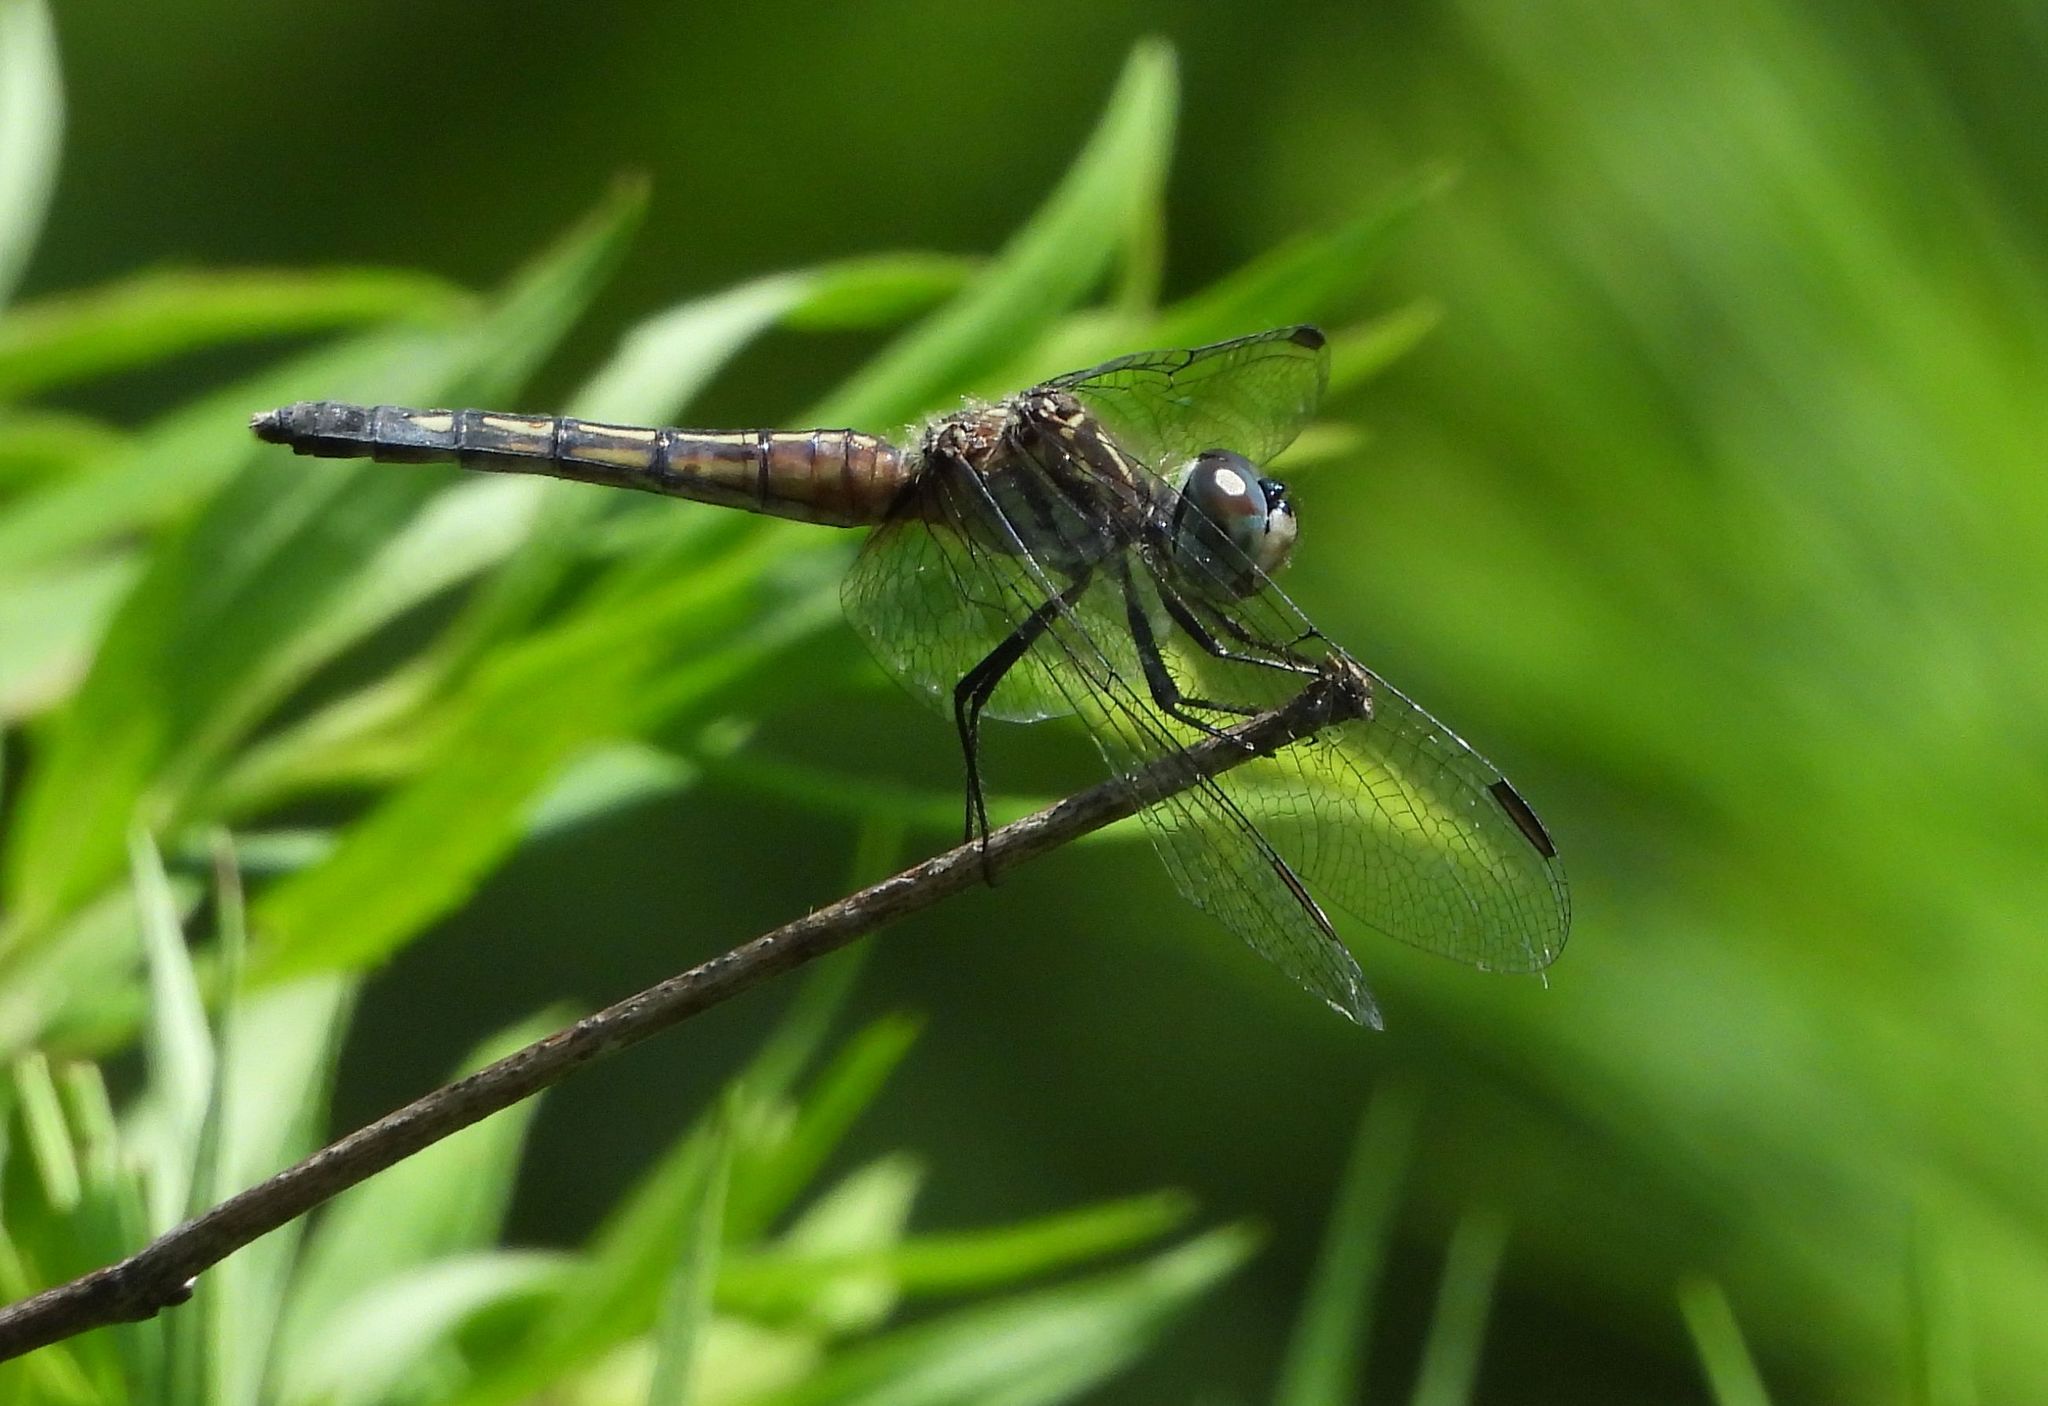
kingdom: Animalia
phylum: Arthropoda
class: Insecta
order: Odonata
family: Libellulidae
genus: Pachydiplax
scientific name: Pachydiplax longipennis
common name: Blue dasher
